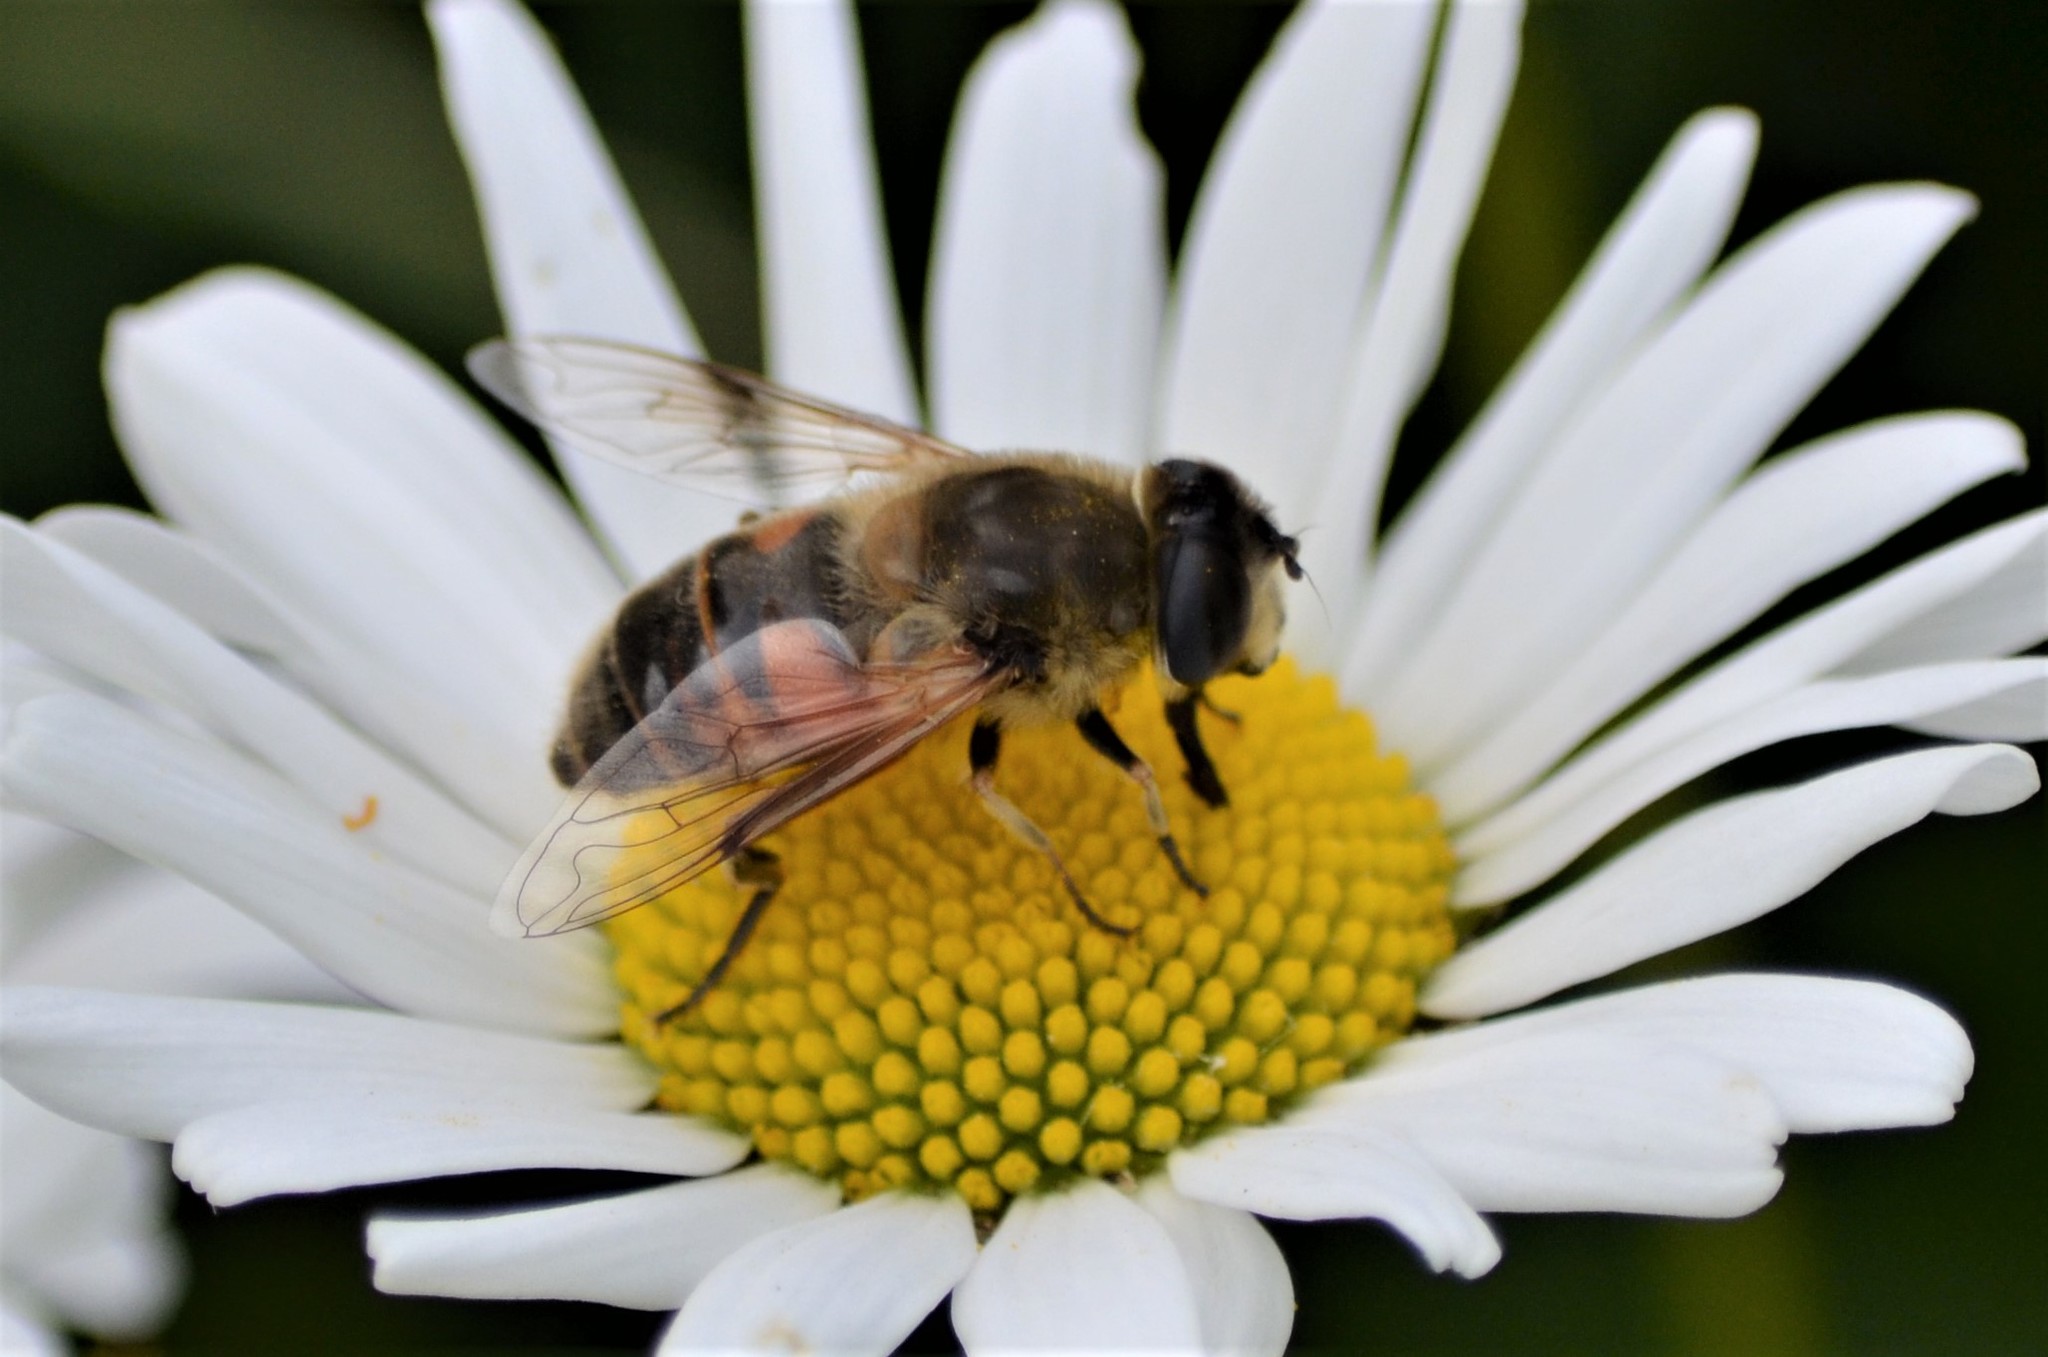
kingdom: Animalia
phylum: Arthropoda
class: Insecta
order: Diptera
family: Syrphidae
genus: Eristalis
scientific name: Eristalis tenax
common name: Drone fly
